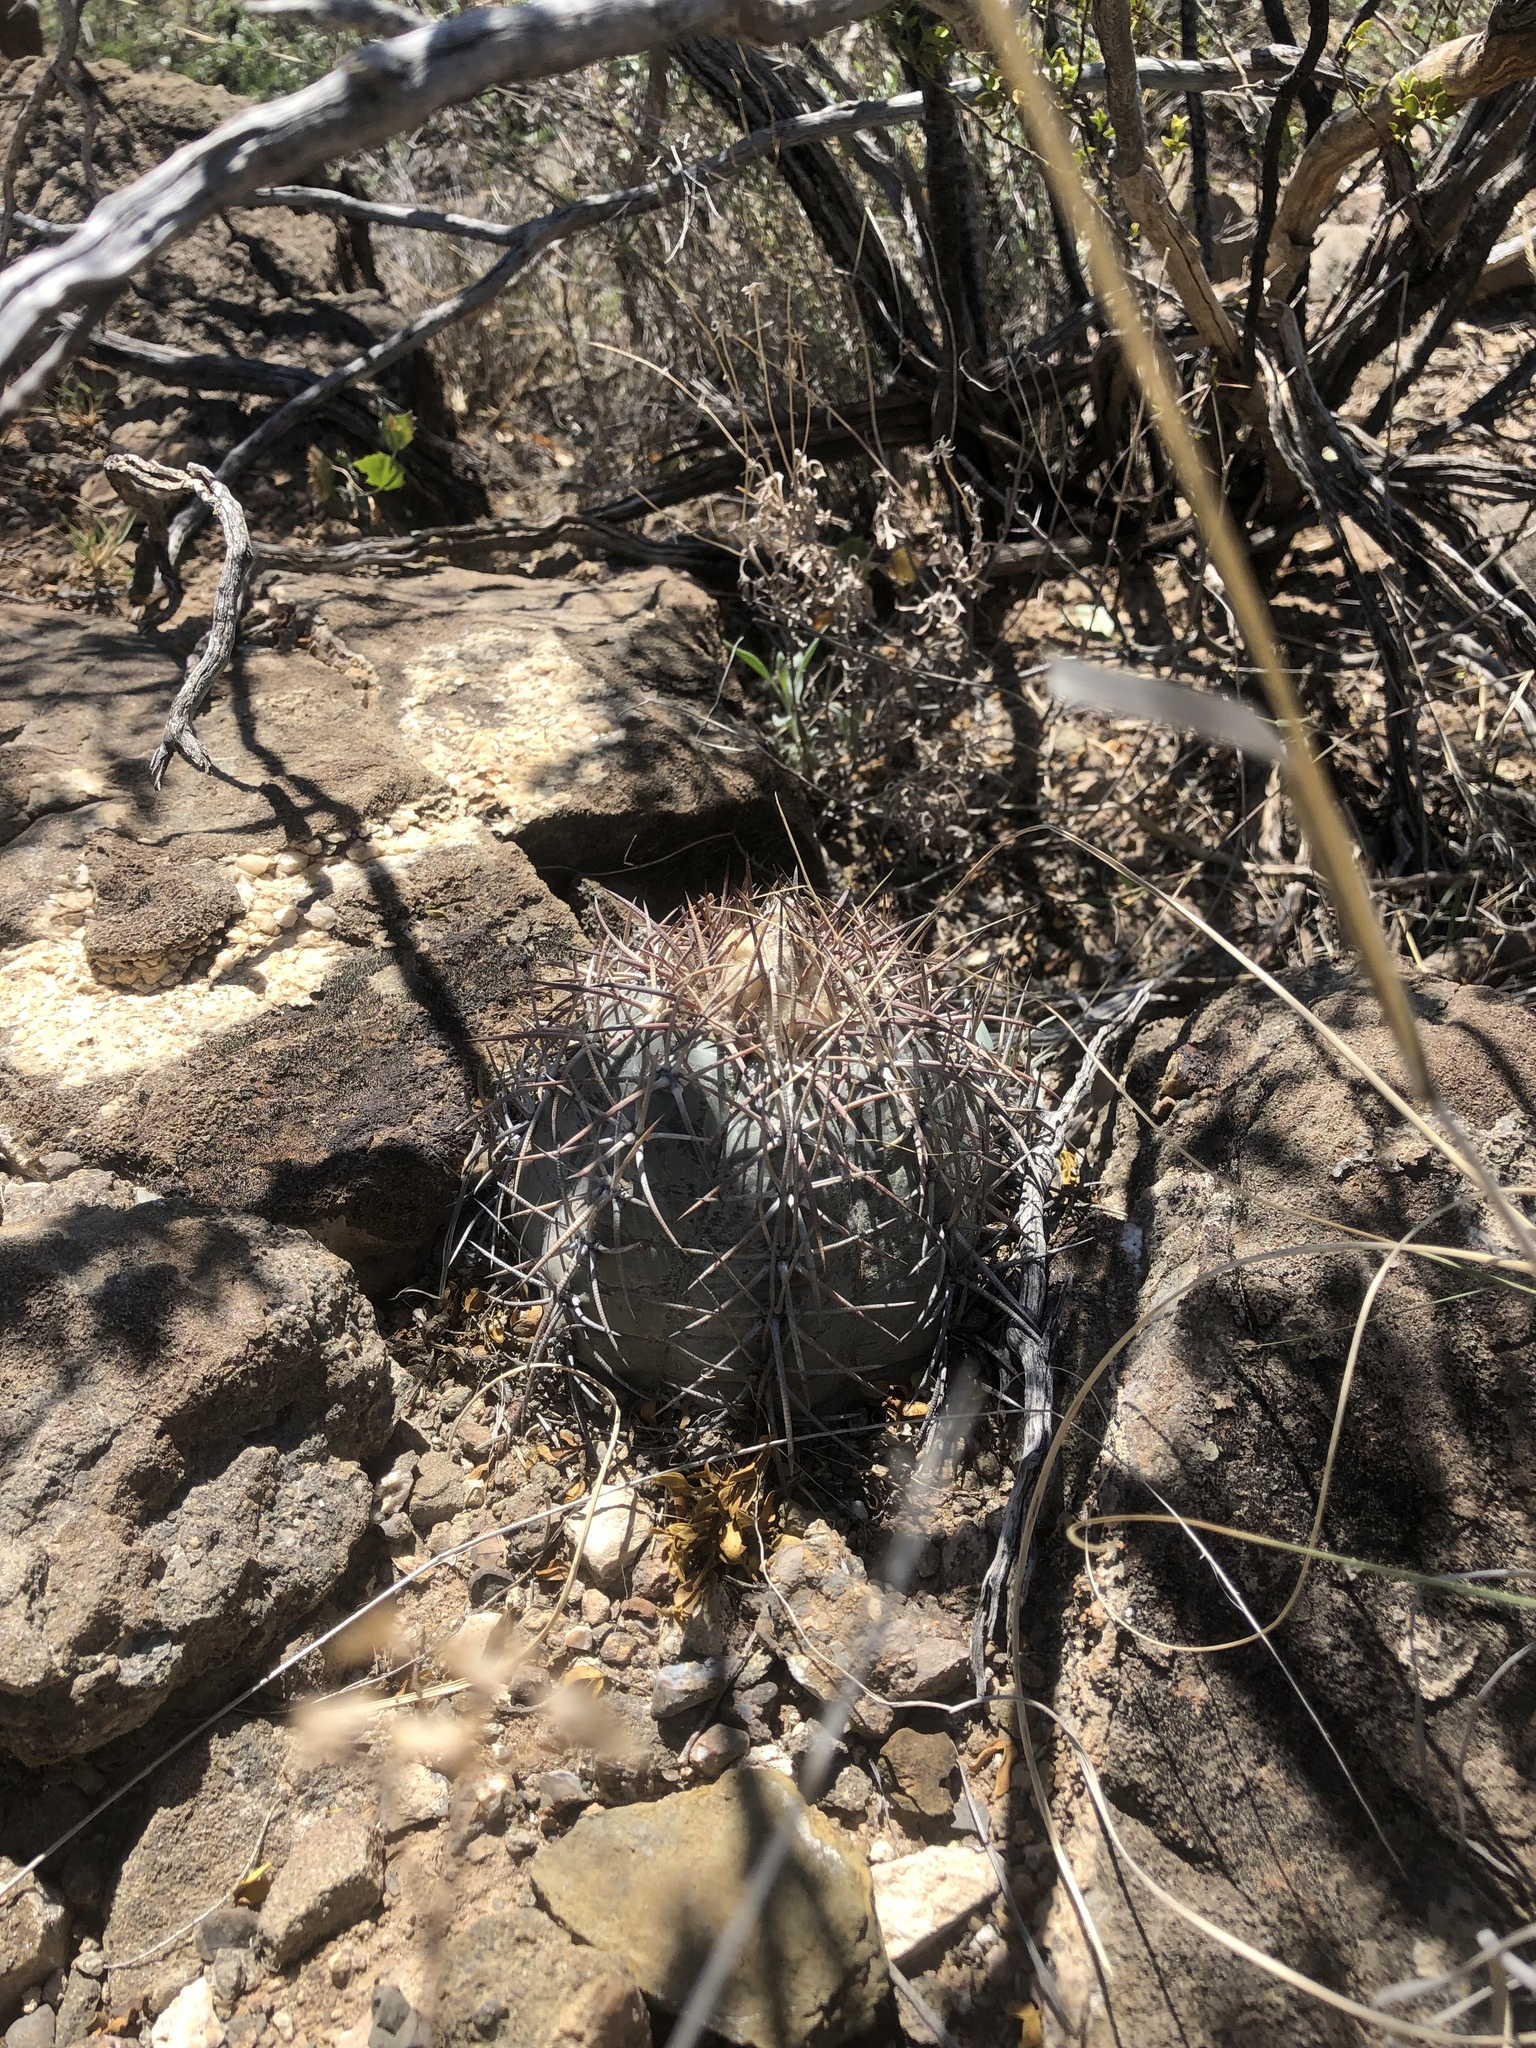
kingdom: Plantae
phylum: Tracheophyta
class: Magnoliopsida
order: Caryophyllales
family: Cactaceae
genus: Echinocactus
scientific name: Echinocactus horizonthalonius
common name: Devilshead
